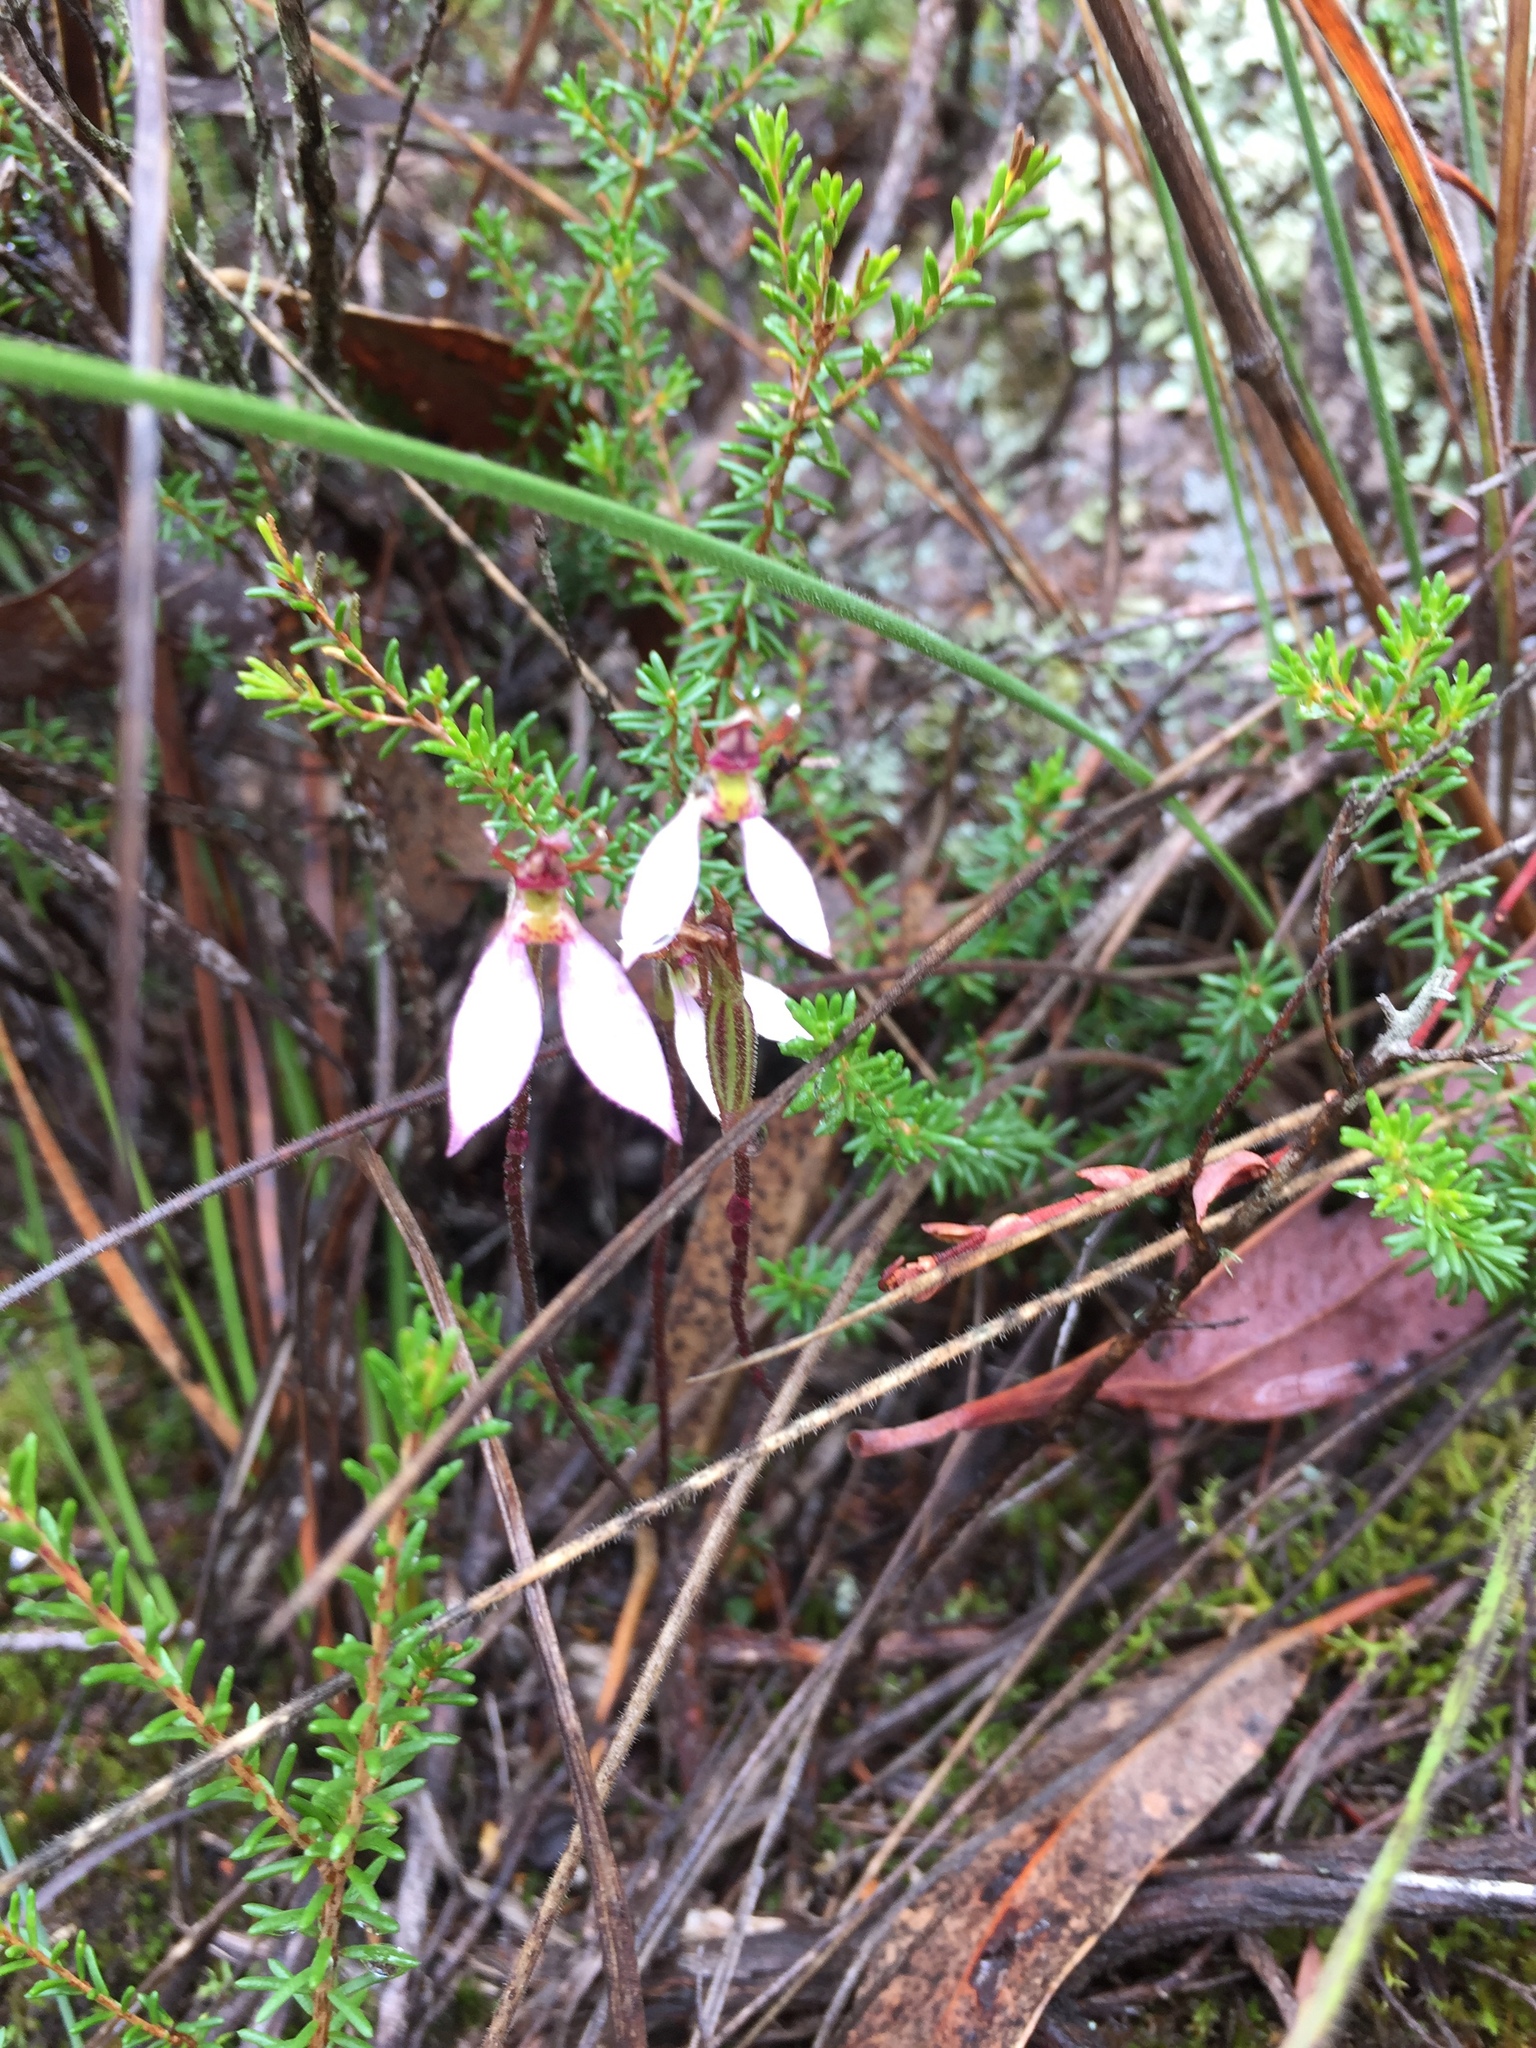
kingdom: Plantae
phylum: Tracheophyta
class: Liliopsida
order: Asparagales
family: Orchidaceae
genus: Eriochilus
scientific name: Eriochilus cucullatus
